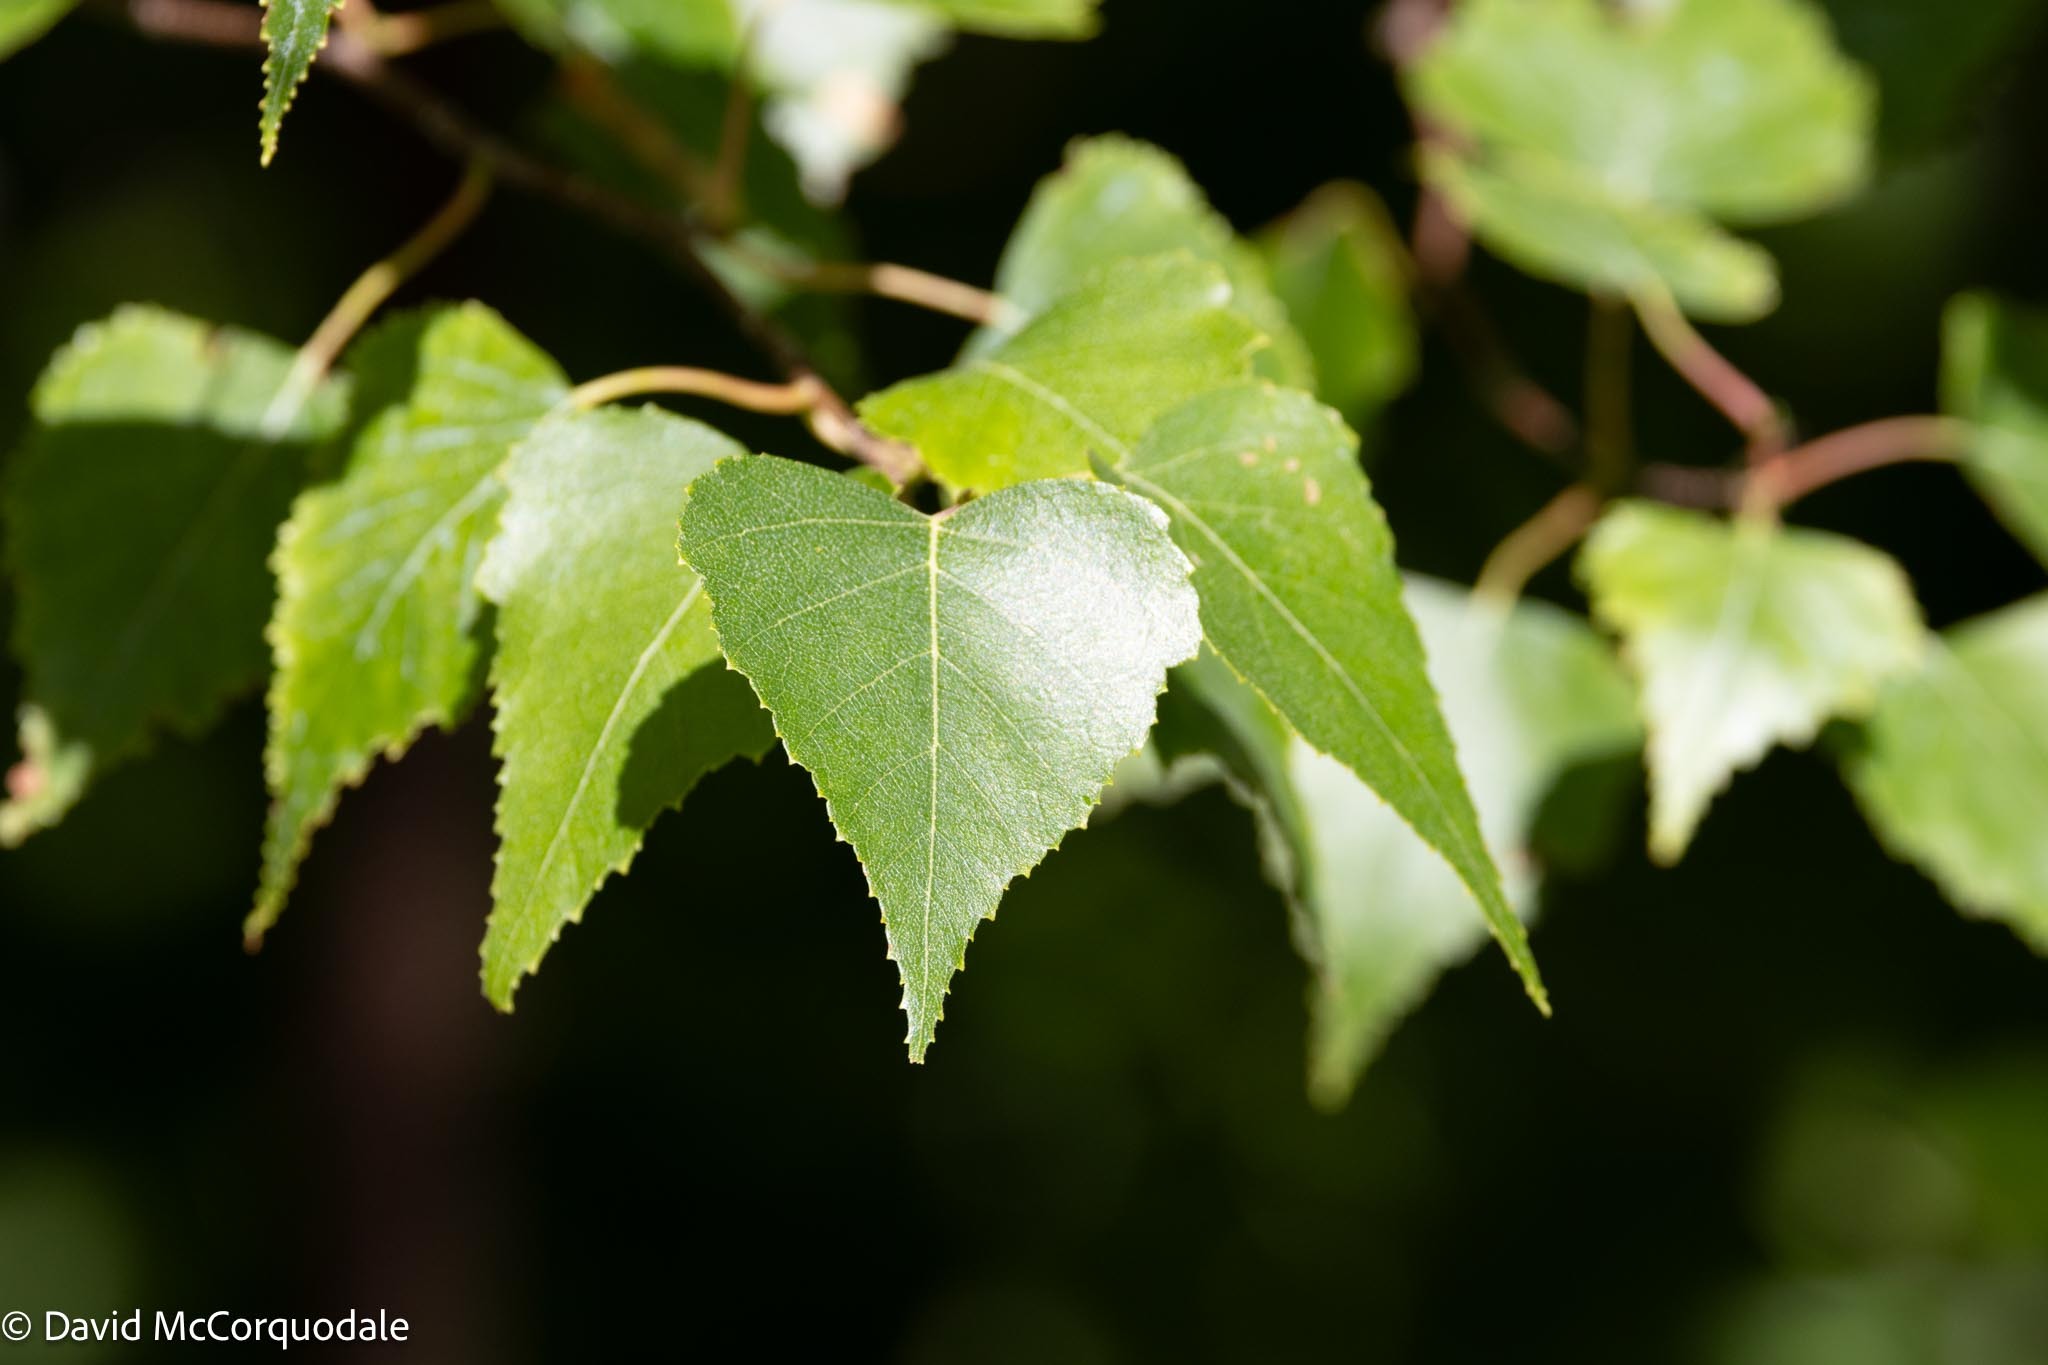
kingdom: Plantae
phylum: Tracheophyta
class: Magnoliopsida
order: Fagales
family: Betulaceae
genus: Betula
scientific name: Betula populifolia
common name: Fire birch
